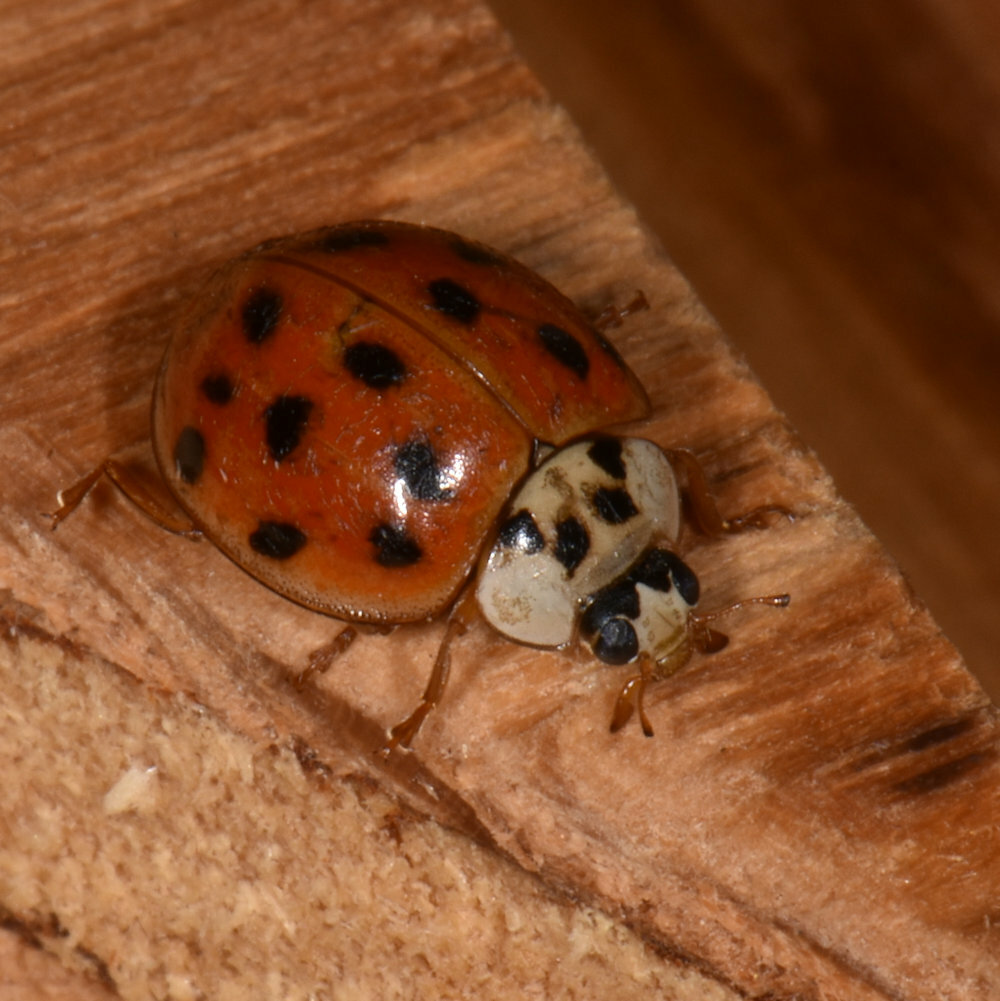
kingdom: Animalia
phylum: Arthropoda
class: Insecta
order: Coleoptera
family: Coccinellidae
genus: Harmonia
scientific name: Harmonia axyridis
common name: Harlequin ladybird
